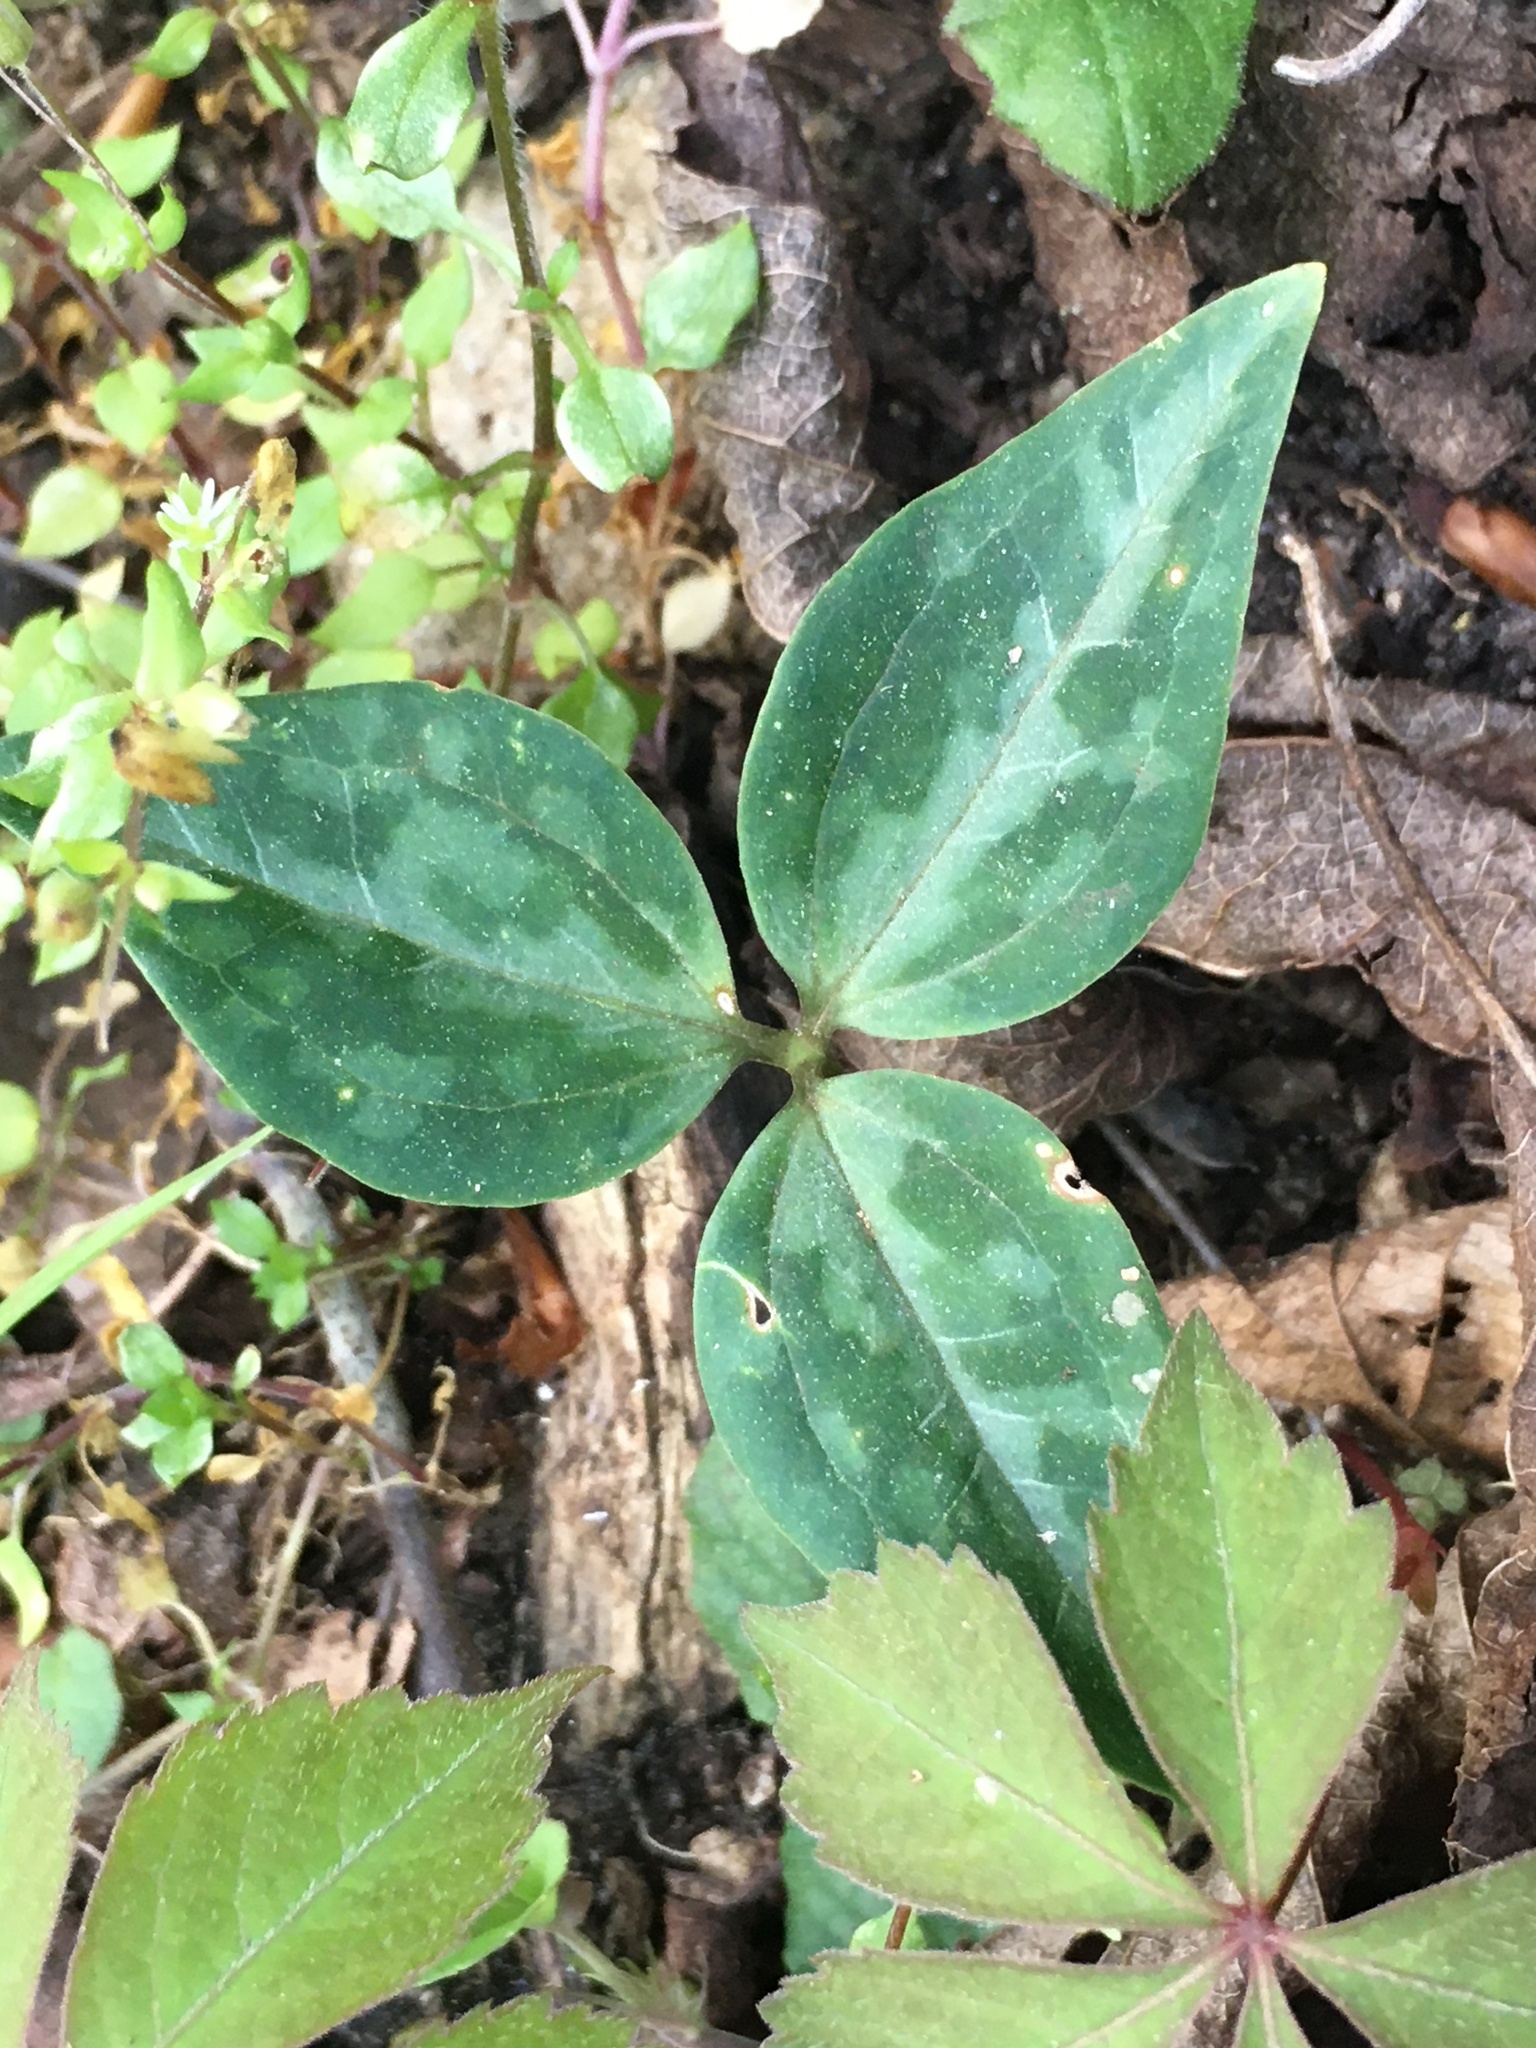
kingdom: Plantae
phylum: Tracheophyta
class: Liliopsida
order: Liliales
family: Melanthiaceae
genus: Trillium
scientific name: Trillium underwoodii
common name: Longbract wakerobin
